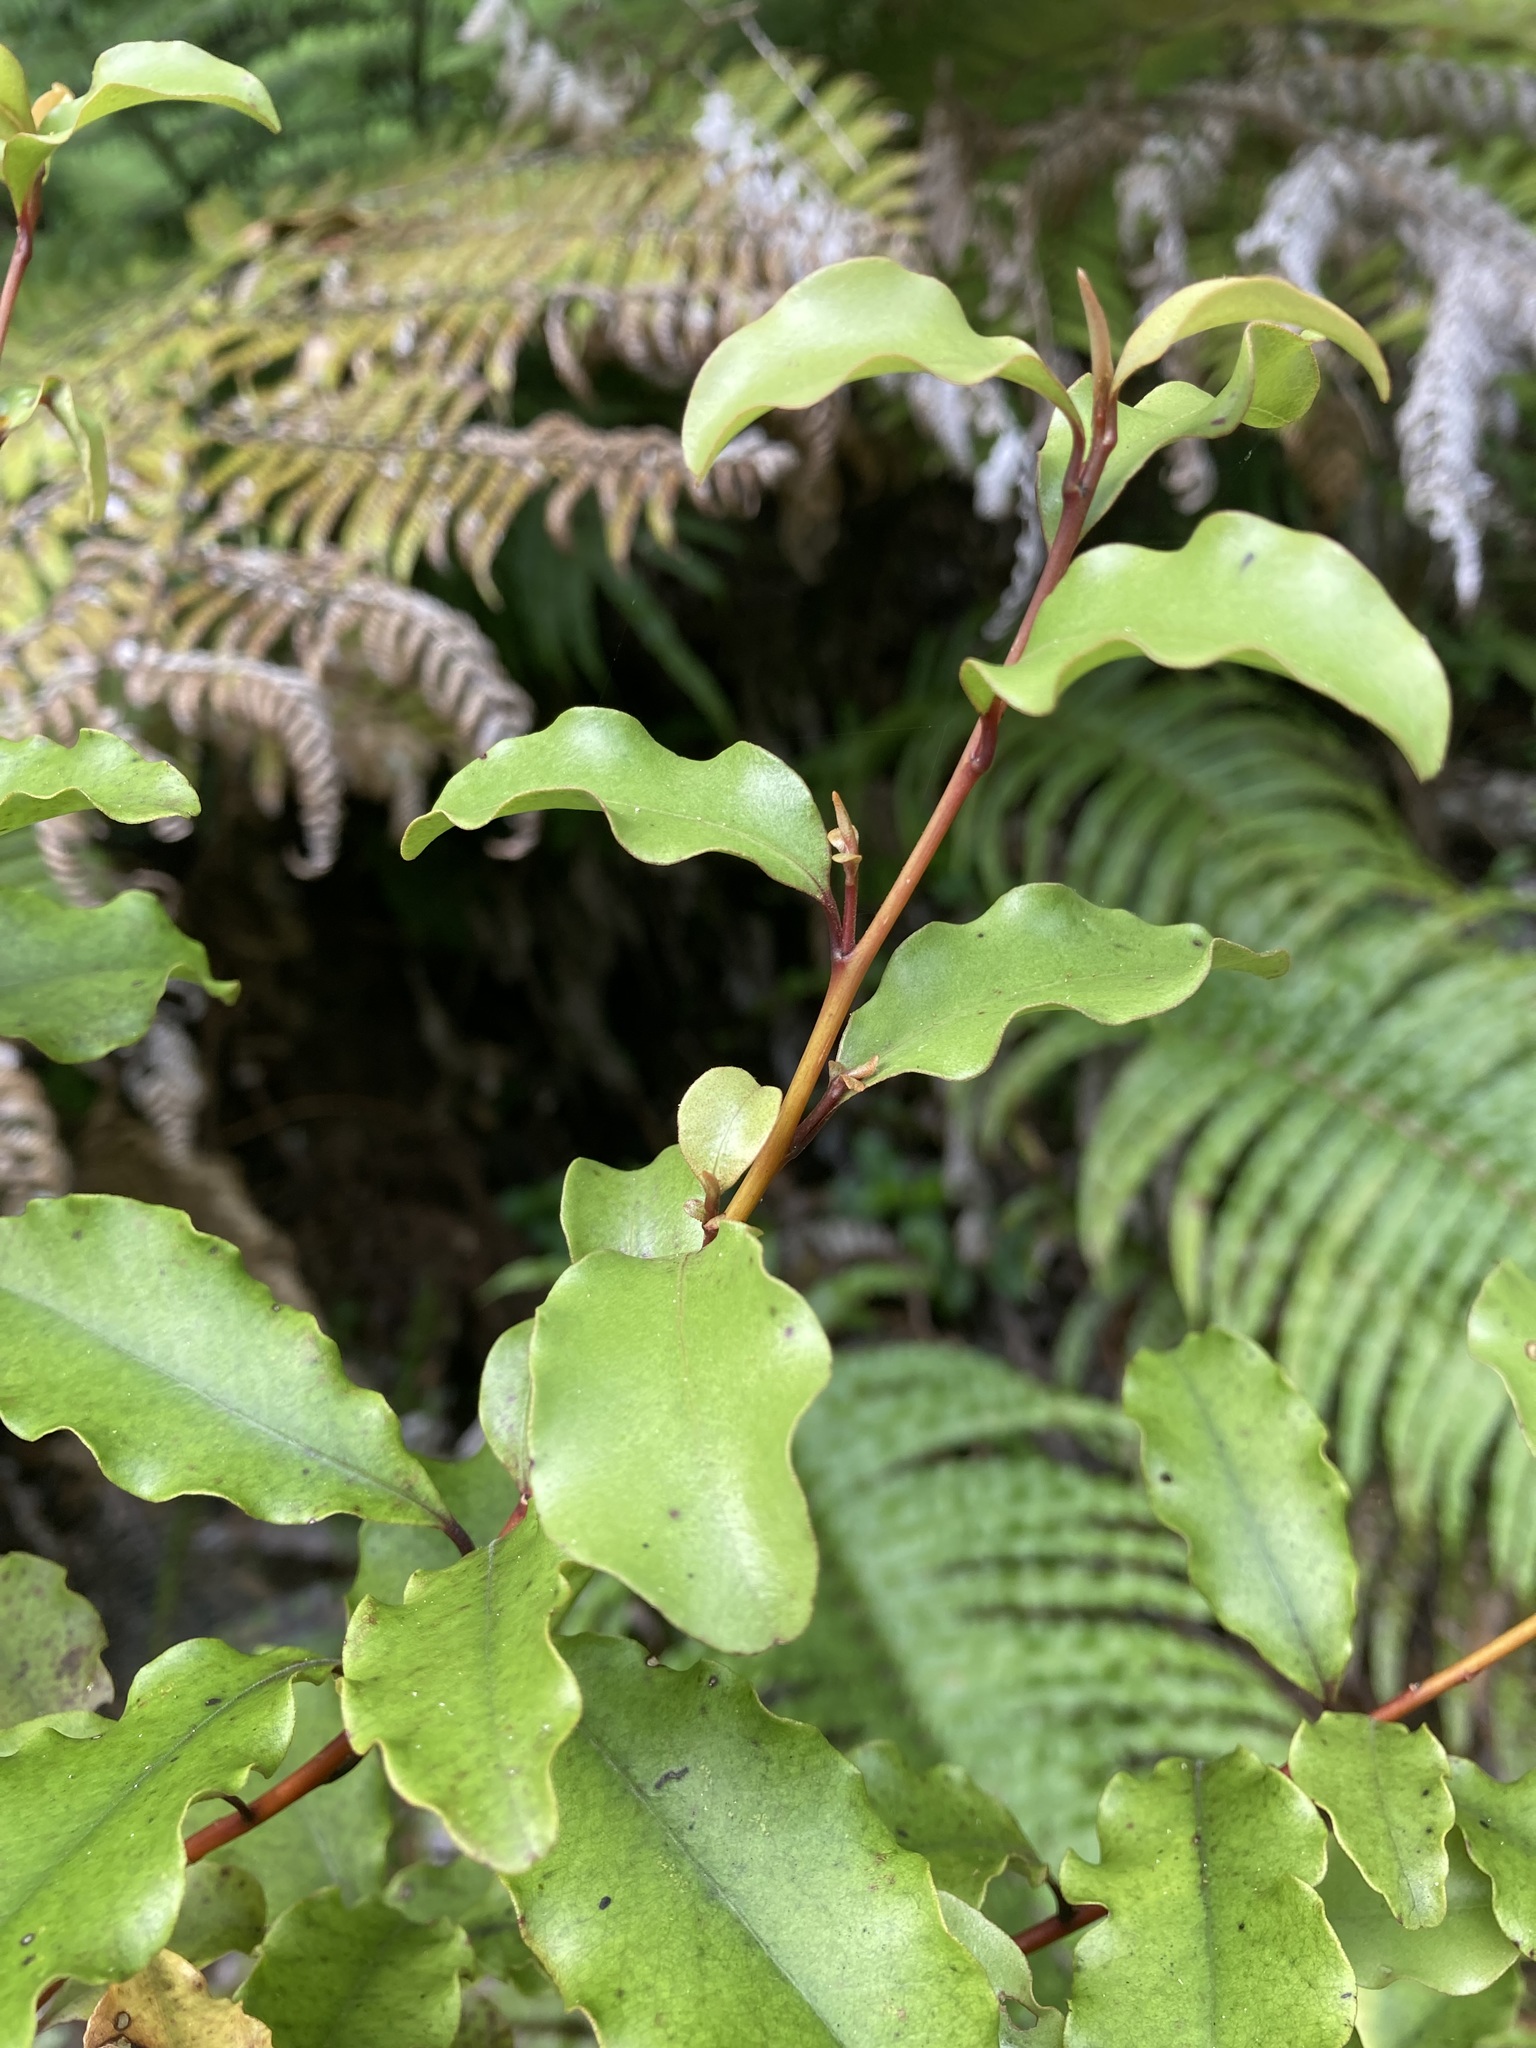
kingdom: Plantae
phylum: Tracheophyta
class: Magnoliopsida
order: Ericales
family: Primulaceae
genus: Myrsine
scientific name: Myrsine australis
